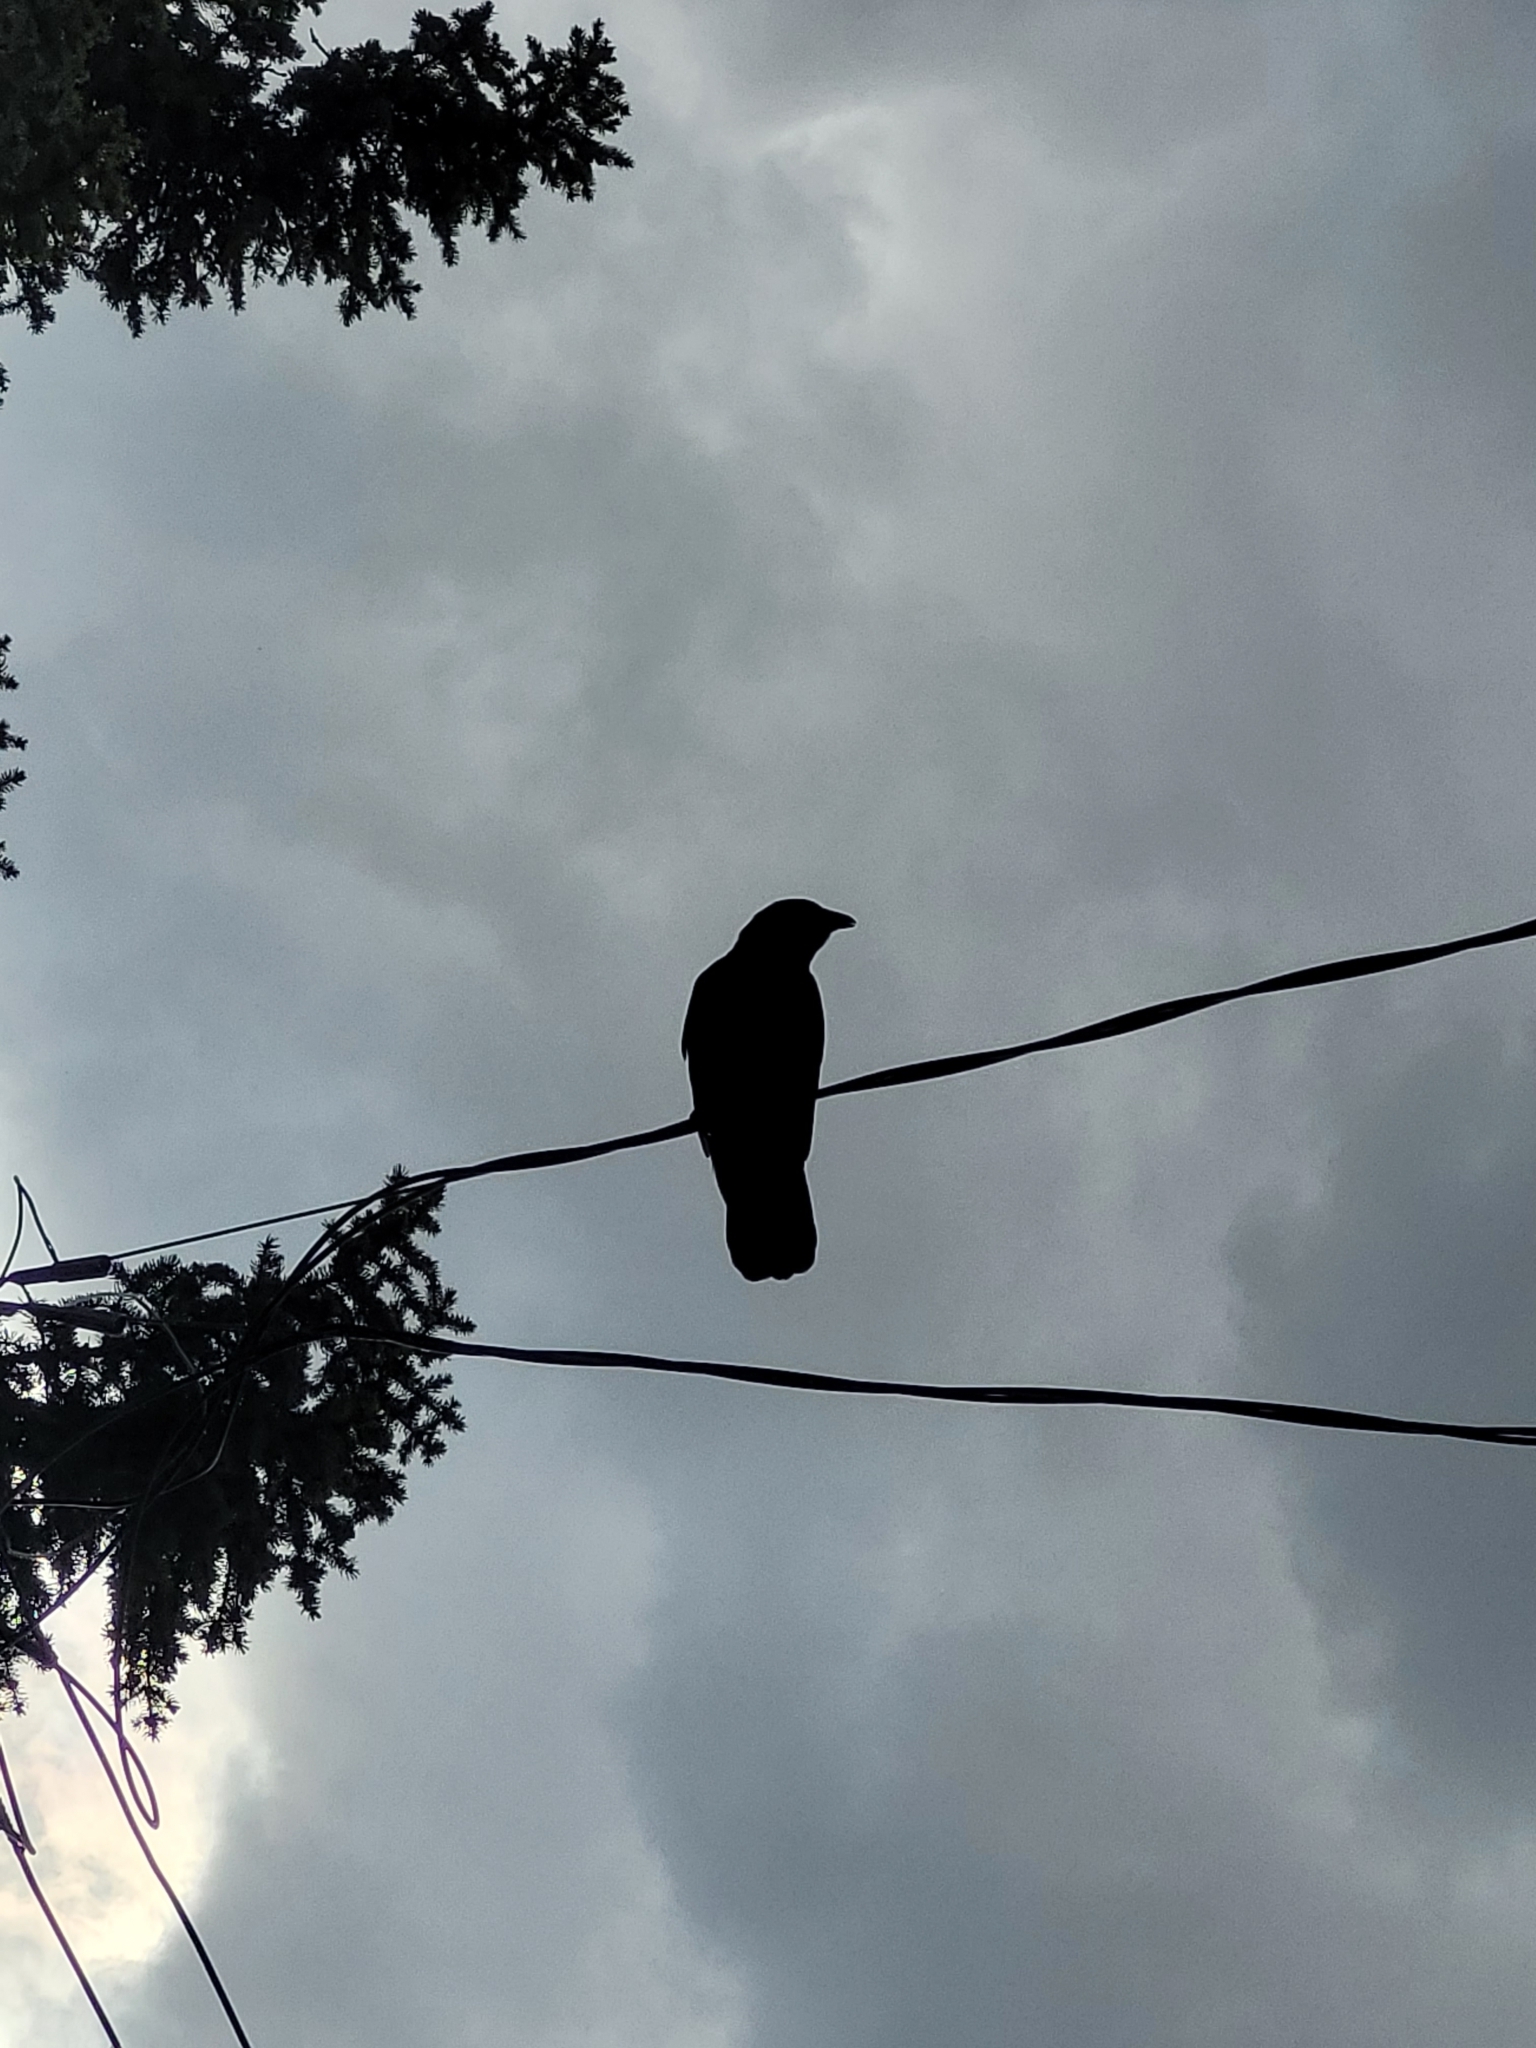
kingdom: Animalia
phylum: Chordata
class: Aves
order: Passeriformes
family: Corvidae
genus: Corvus
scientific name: Corvus brachyrhynchos
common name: American crow
